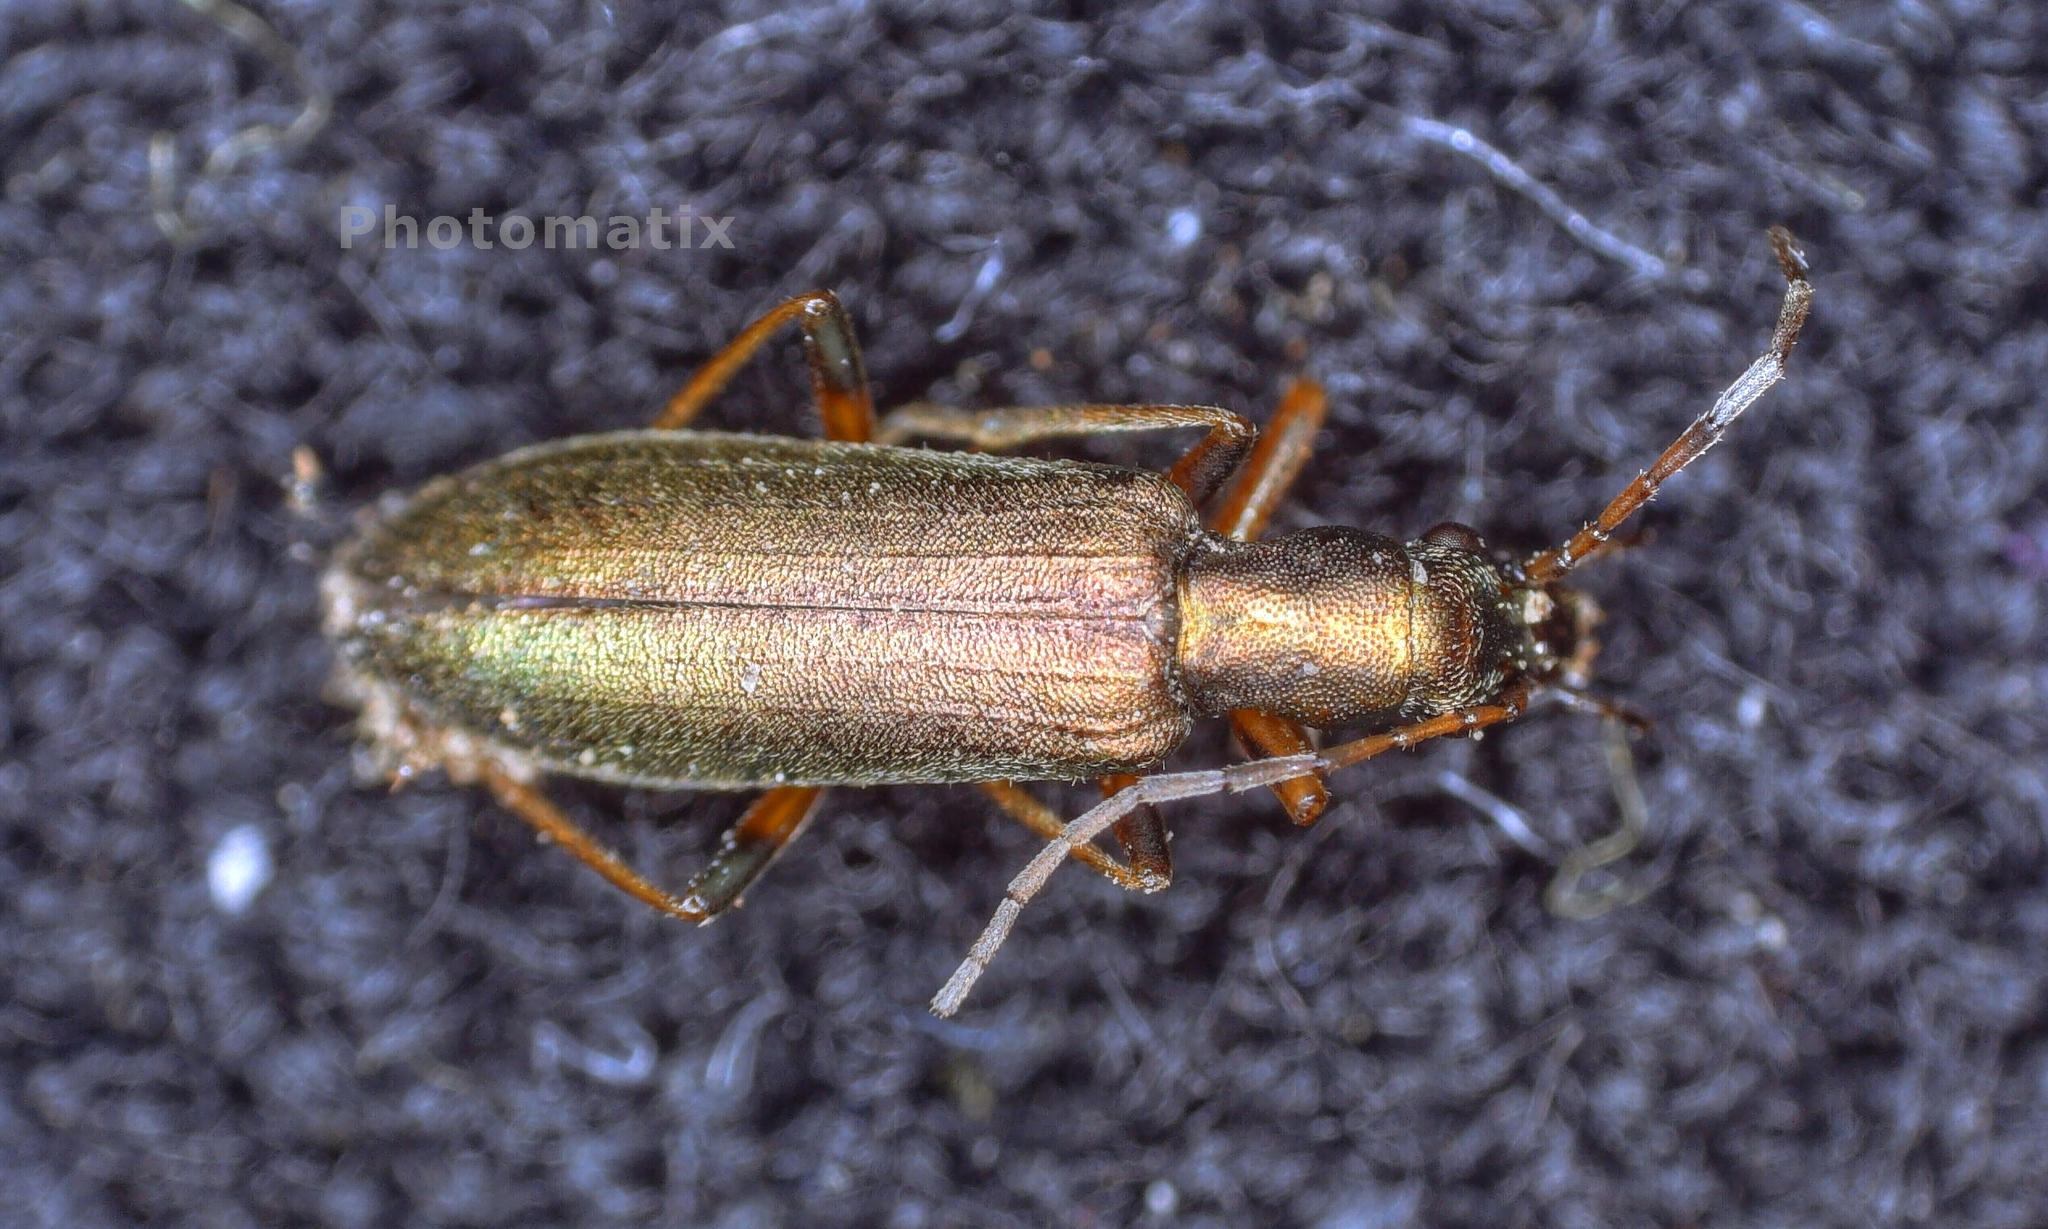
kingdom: Animalia
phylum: Arthropoda
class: Insecta
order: Coleoptera
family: Oedemeridae
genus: Chrysanthia
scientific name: Chrysanthia geniculata
